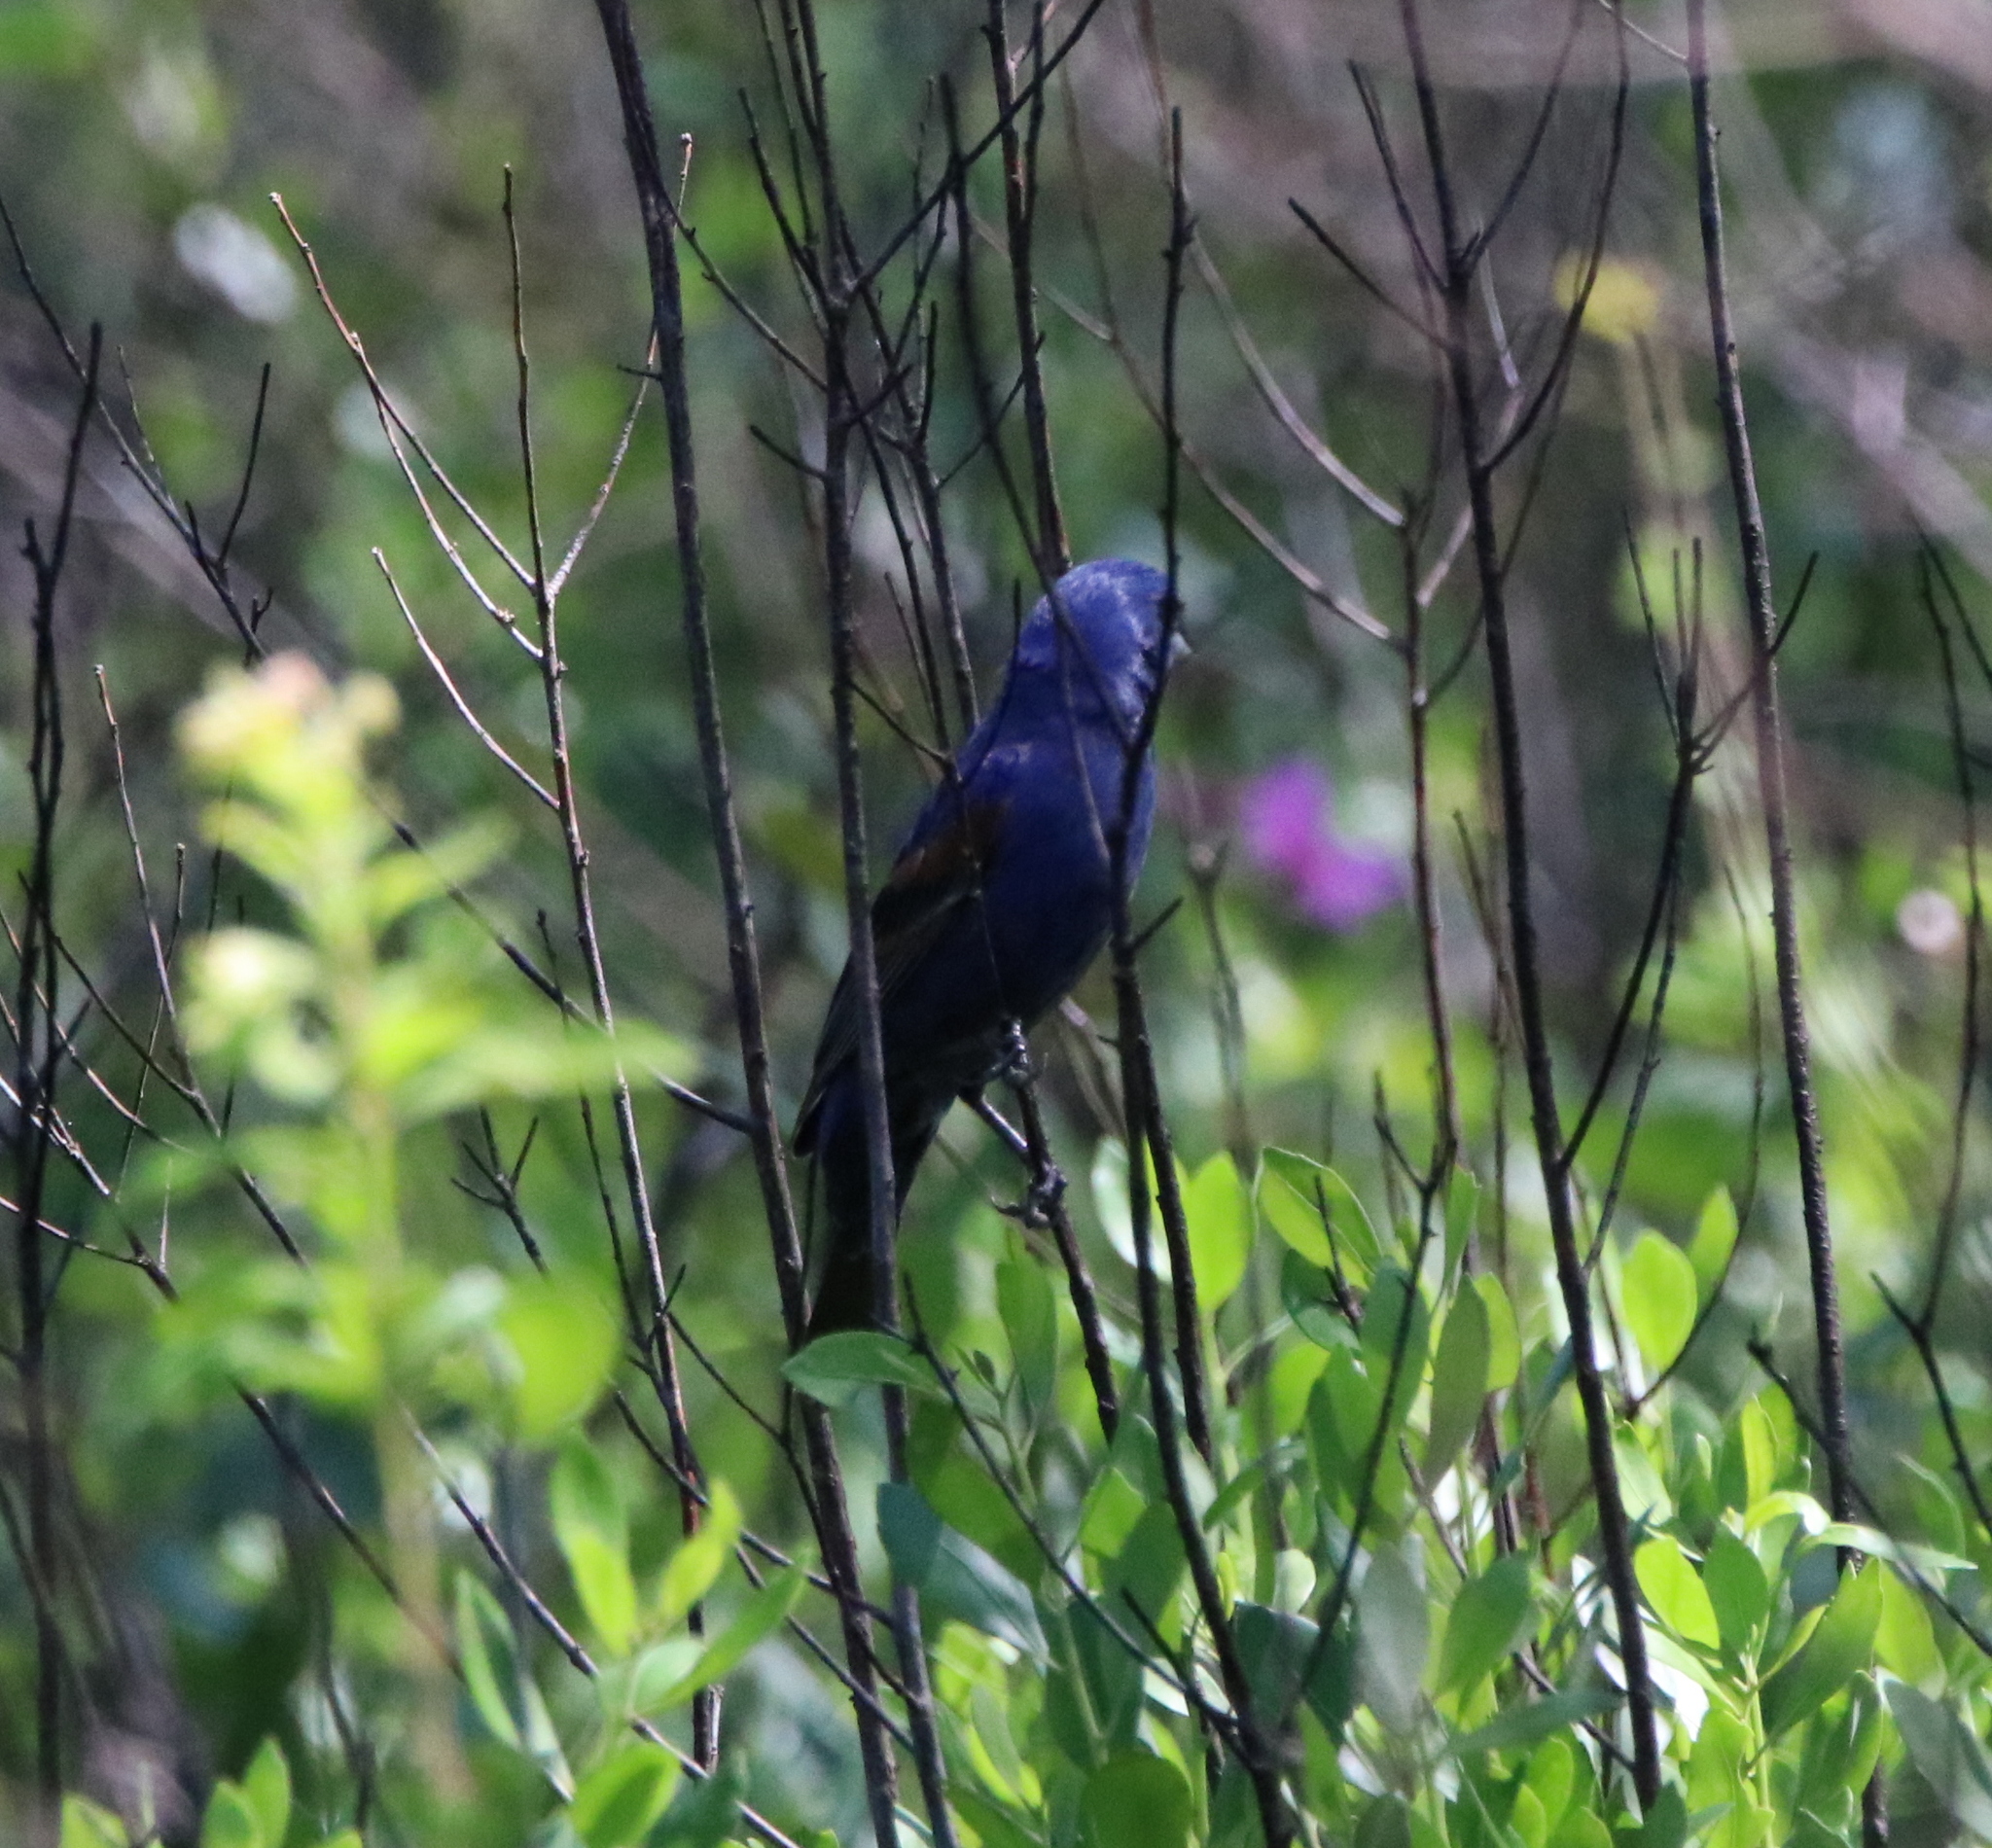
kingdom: Animalia
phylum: Chordata
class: Aves
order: Passeriformes
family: Cardinalidae
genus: Passerina
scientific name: Passerina caerulea
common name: Blue grosbeak
